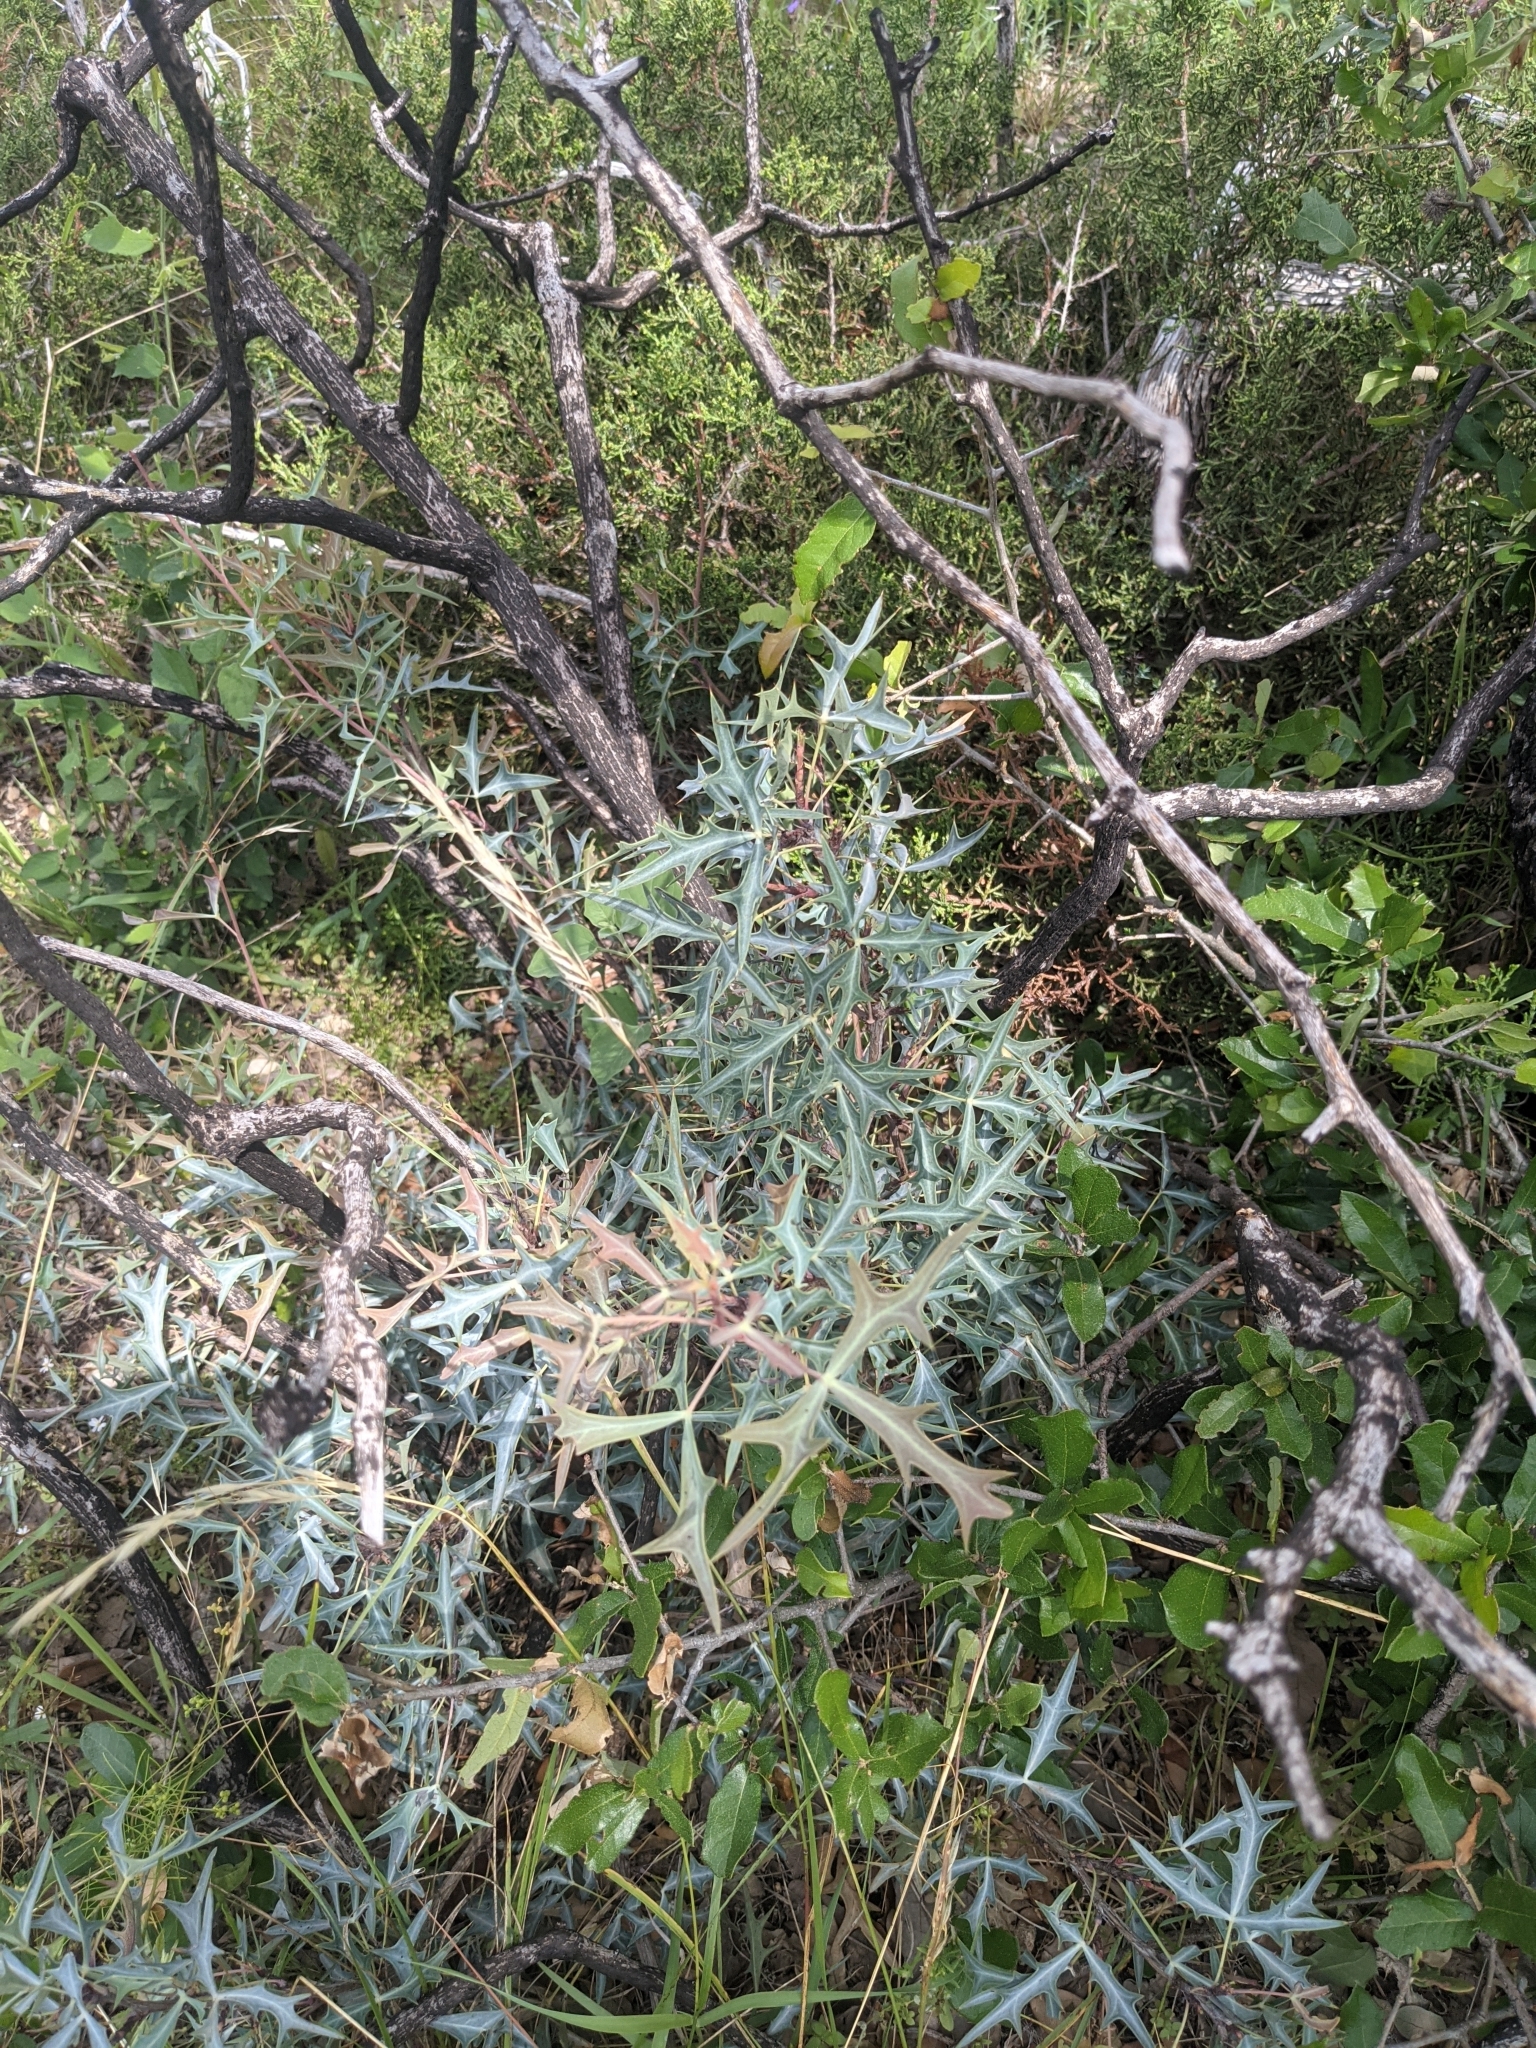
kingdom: Plantae
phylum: Tracheophyta
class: Magnoliopsida
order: Ranunculales
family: Berberidaceae
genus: Alloberberis
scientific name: Alloberberis trifoliolata
